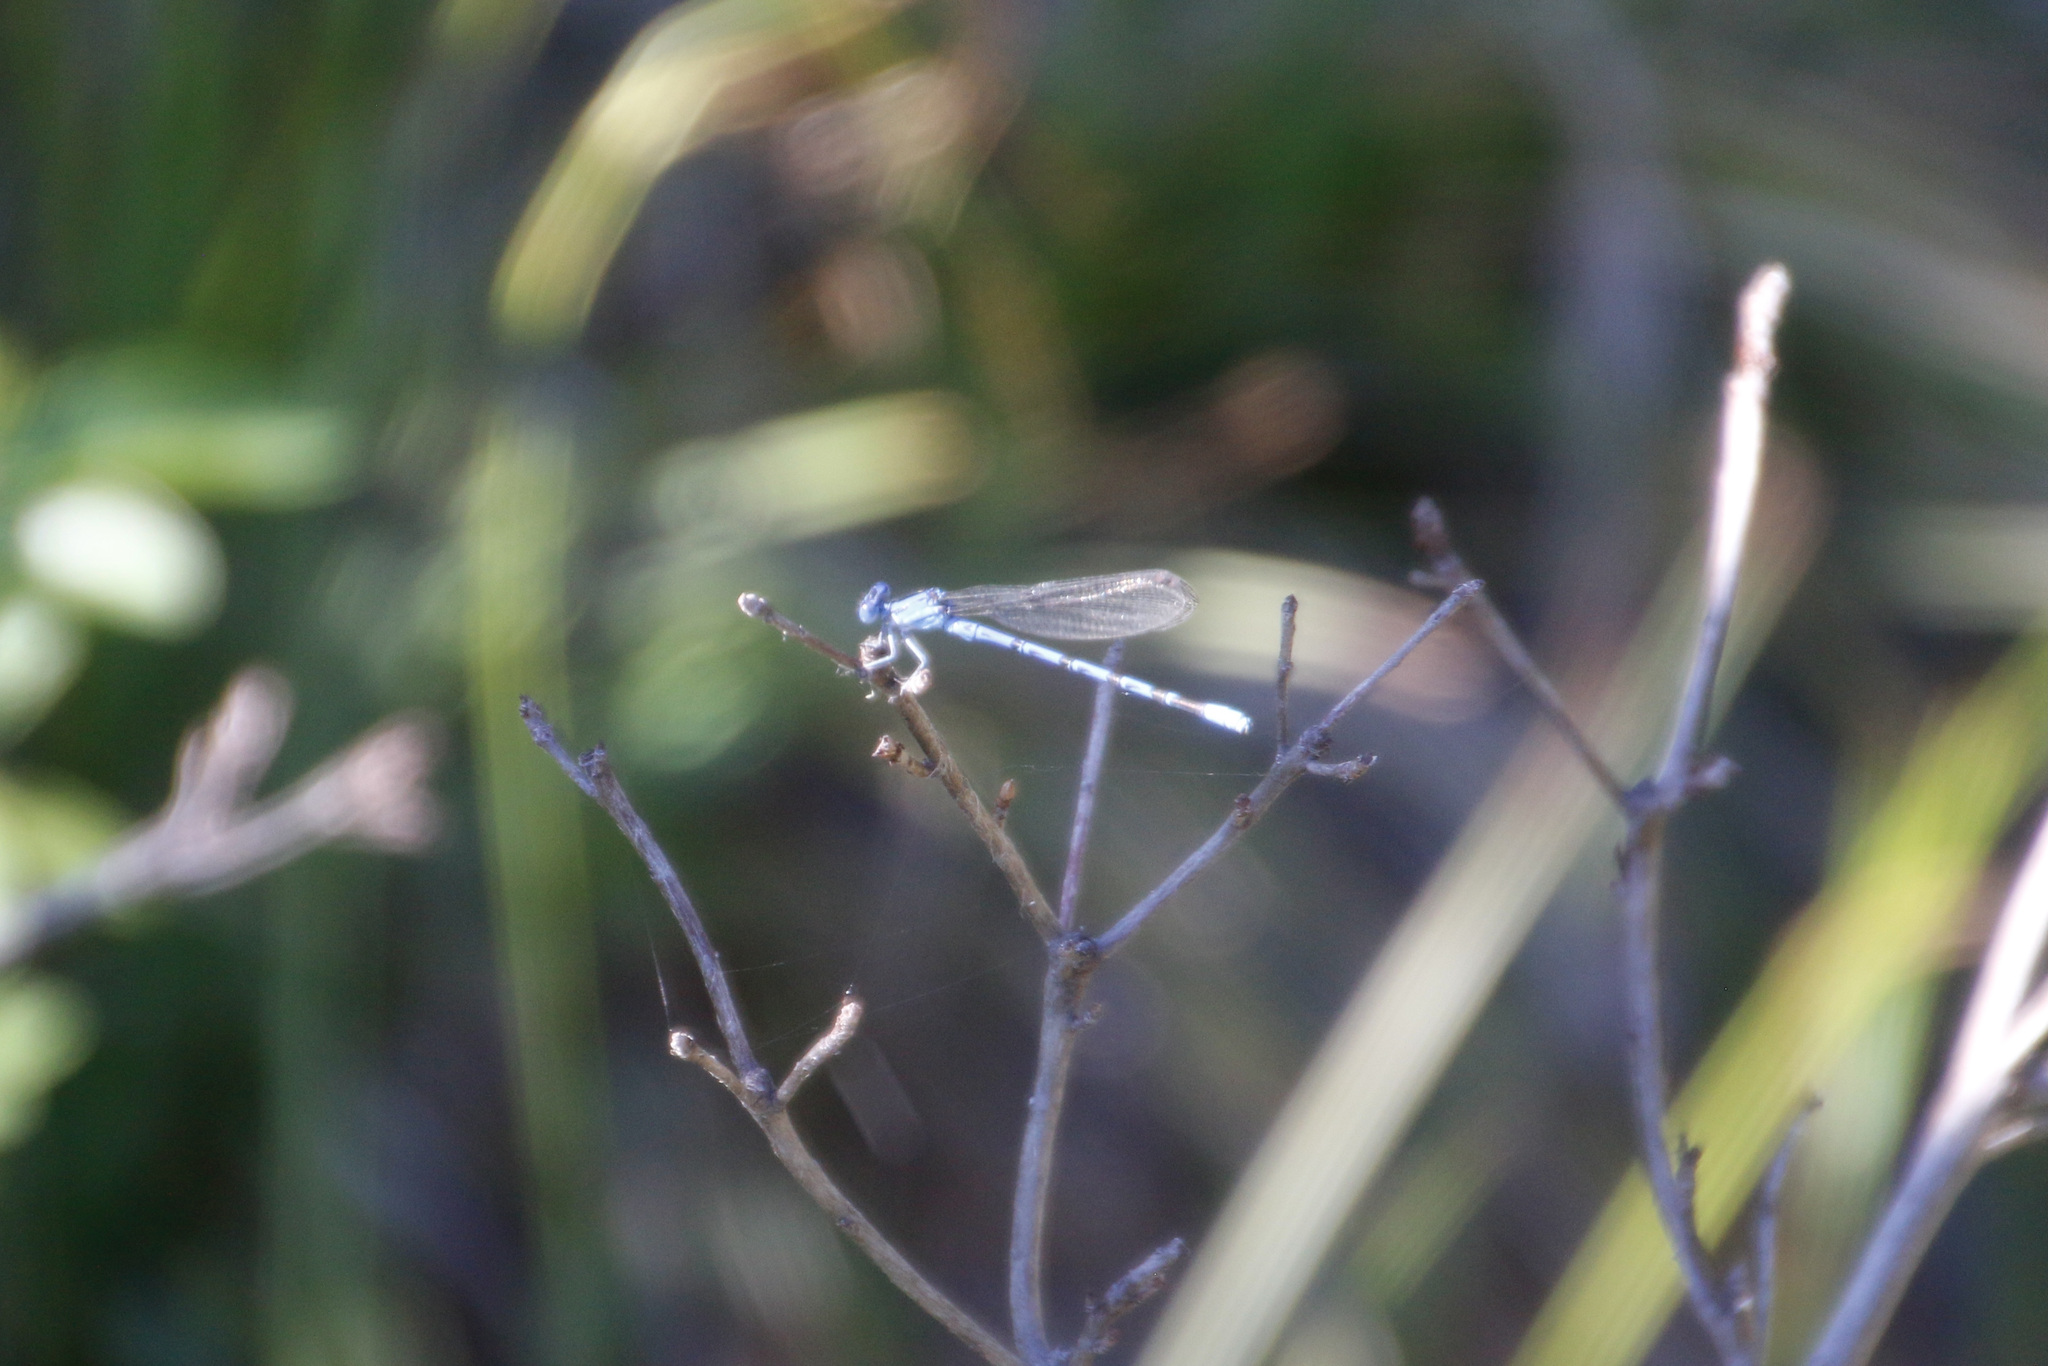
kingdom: Animalia
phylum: Arthropoda
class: Insecta
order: Odonata
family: Coenagrionidae
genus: Argia
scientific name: Argia vivida
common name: Vivid dancer
